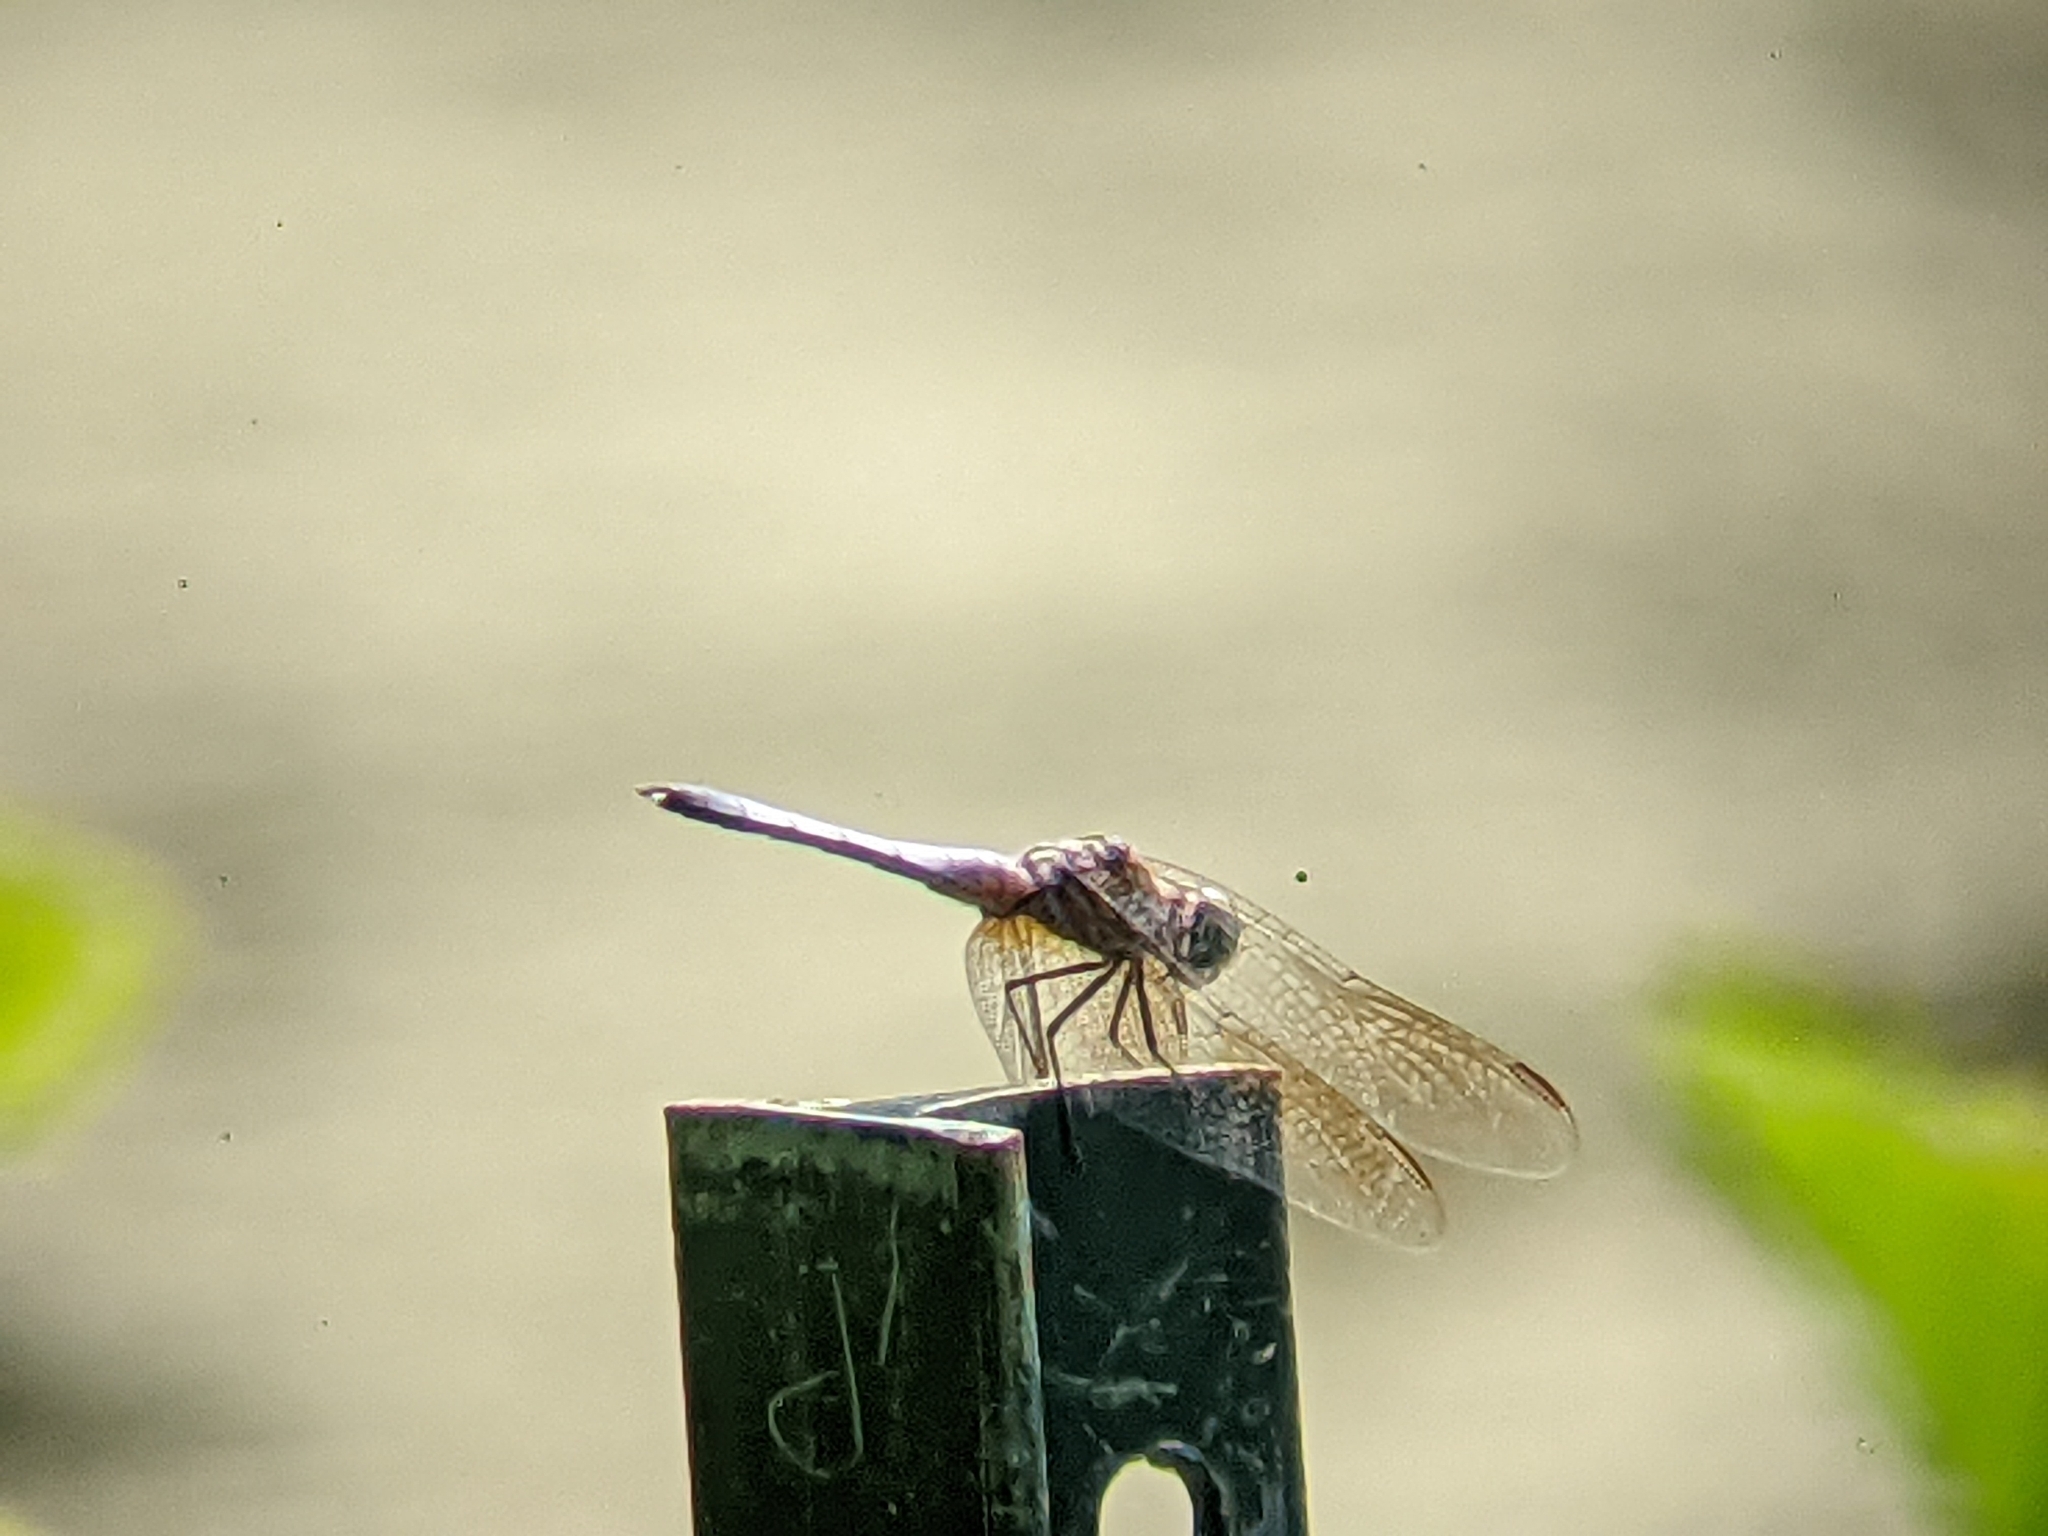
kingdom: Animalia
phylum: Arthropoda
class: Insecta
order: Odonata
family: Libellulidae
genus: Pachydiplax
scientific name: Pachydiplax longipennis
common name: Blue dasher
